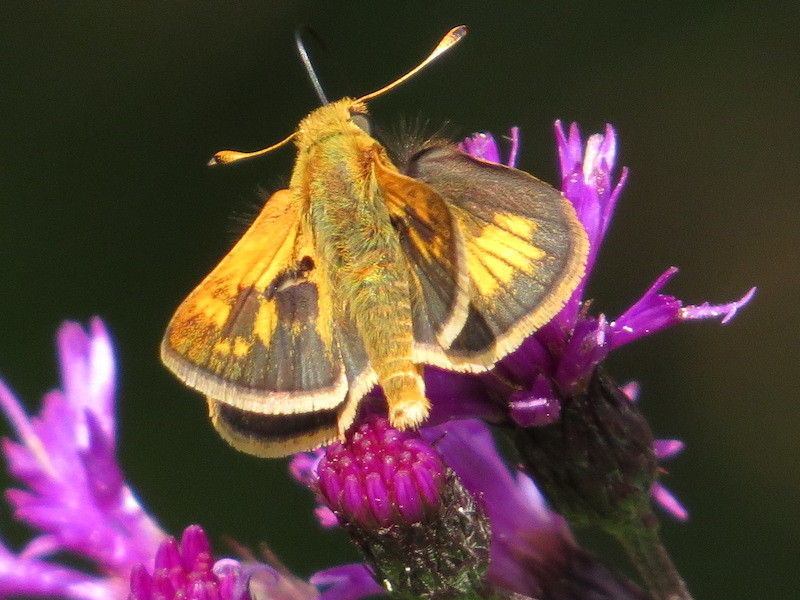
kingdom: Animalia
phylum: Arthropoda
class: Insecta
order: Lepidoptera
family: Hesperiidae
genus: Polites
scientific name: Polites coras
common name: Peck's skipper
